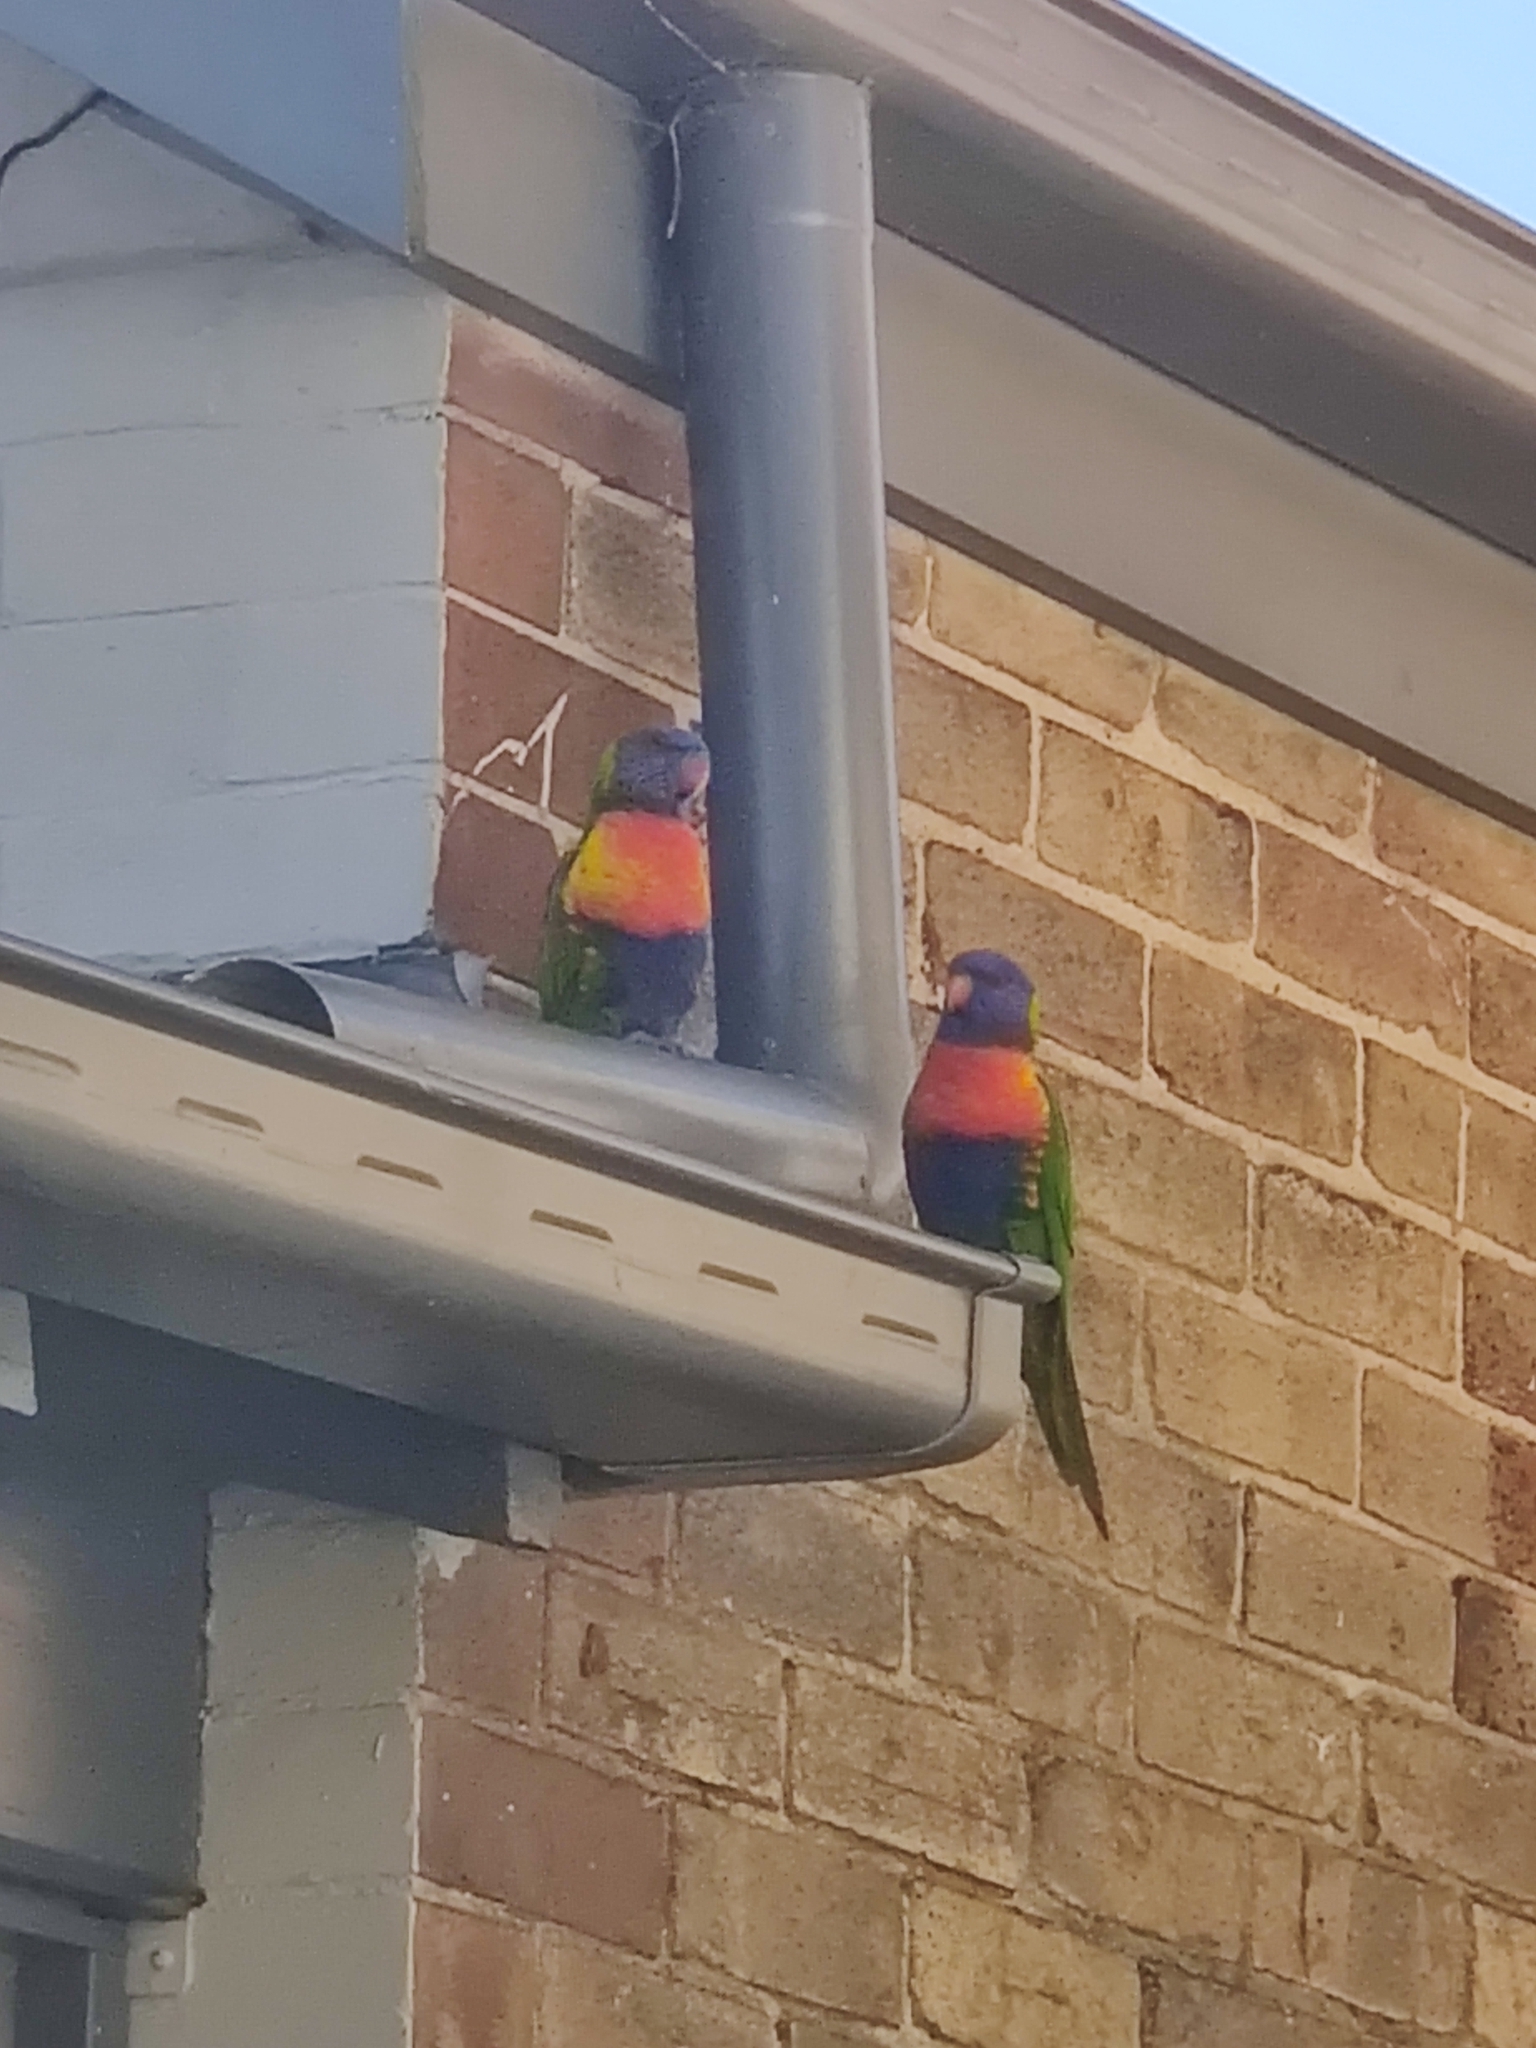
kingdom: Animalia
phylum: Chordata
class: Aves
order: Psittaciformes
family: Psittacidae
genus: Trichoglossus
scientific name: Trichoglossus haematodus
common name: Coconut lorikeet
